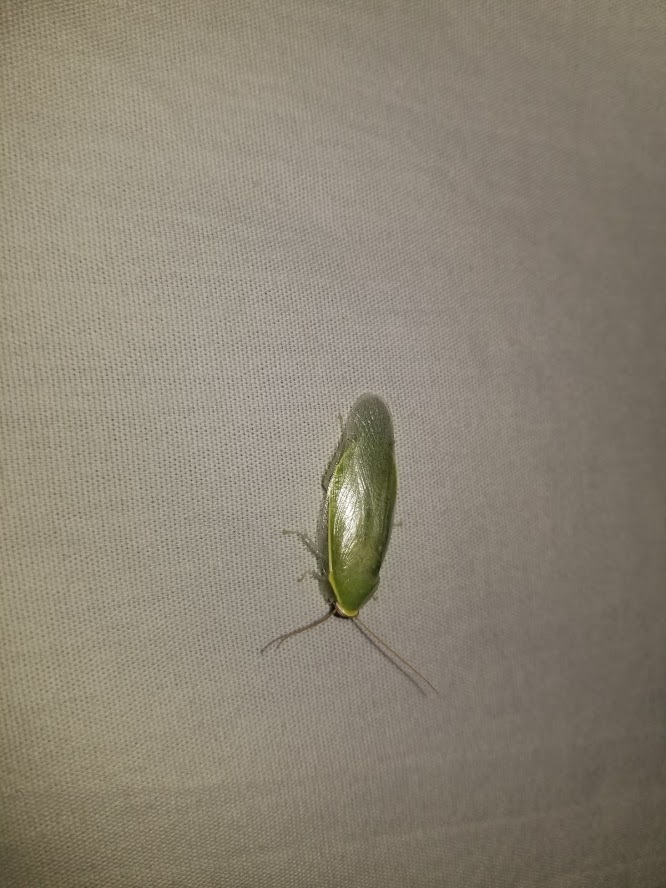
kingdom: Animalia
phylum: Arthropoda
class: Insecta
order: Blattodea
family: Blaberidae
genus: Panchlora
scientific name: Panchlora nivea
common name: Cuban cockroach
